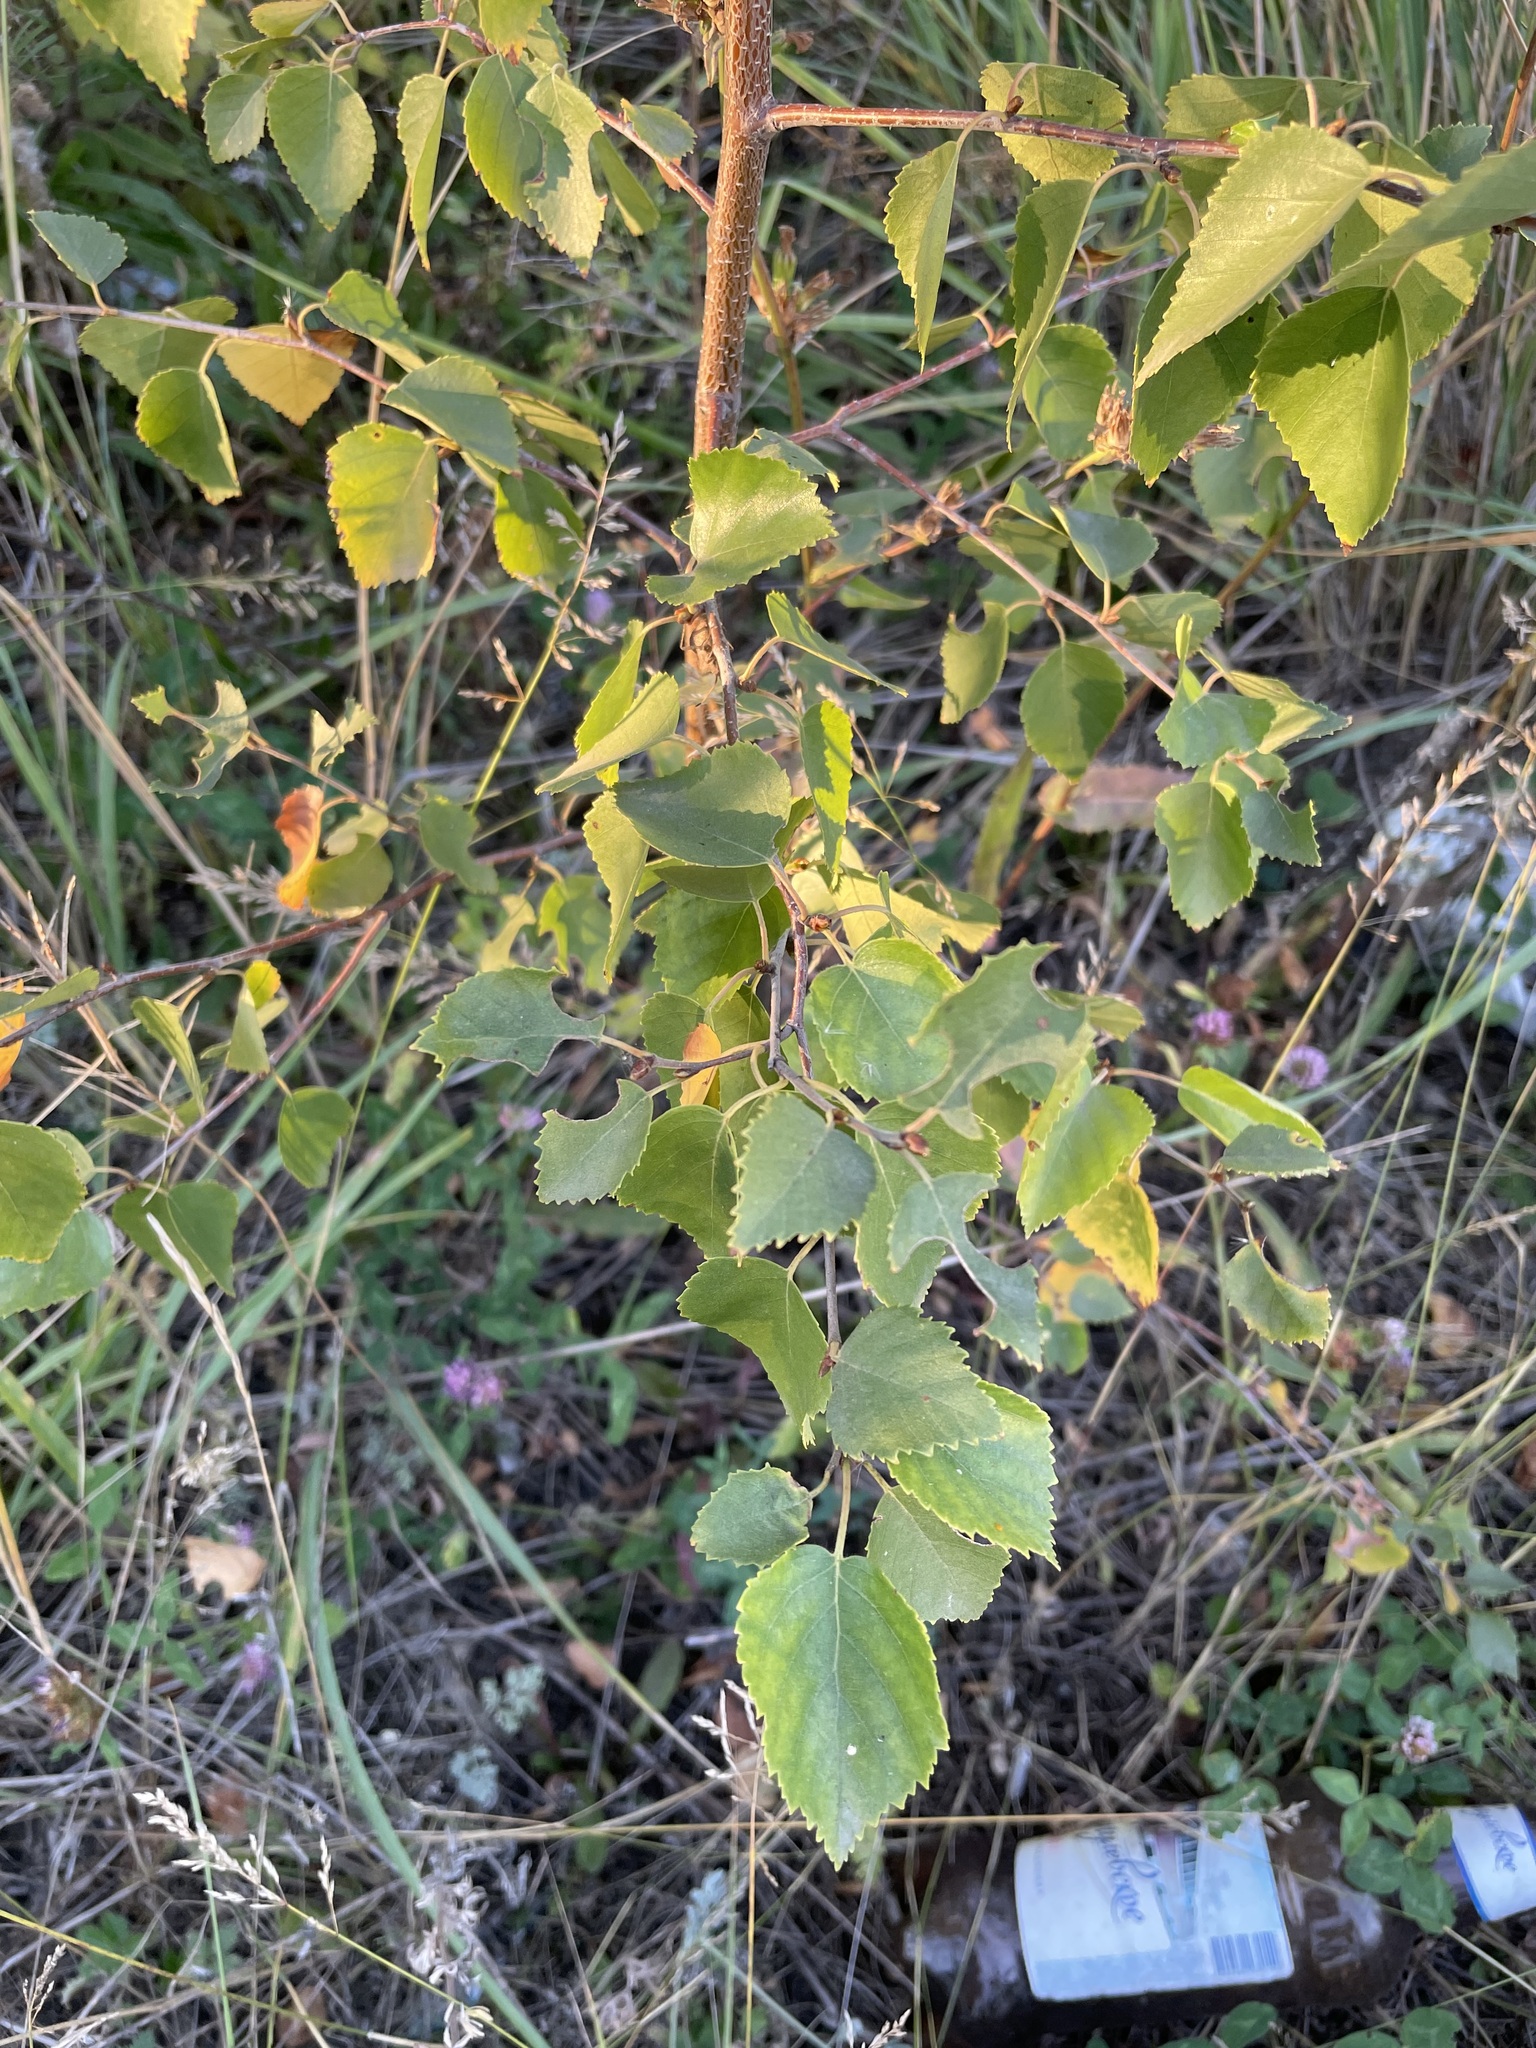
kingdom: Plantae
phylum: Tracheophyta
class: Magnoliopsida
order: Fagales
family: Betulaceae
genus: Betula
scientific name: Betula pendula
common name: Silver birch
